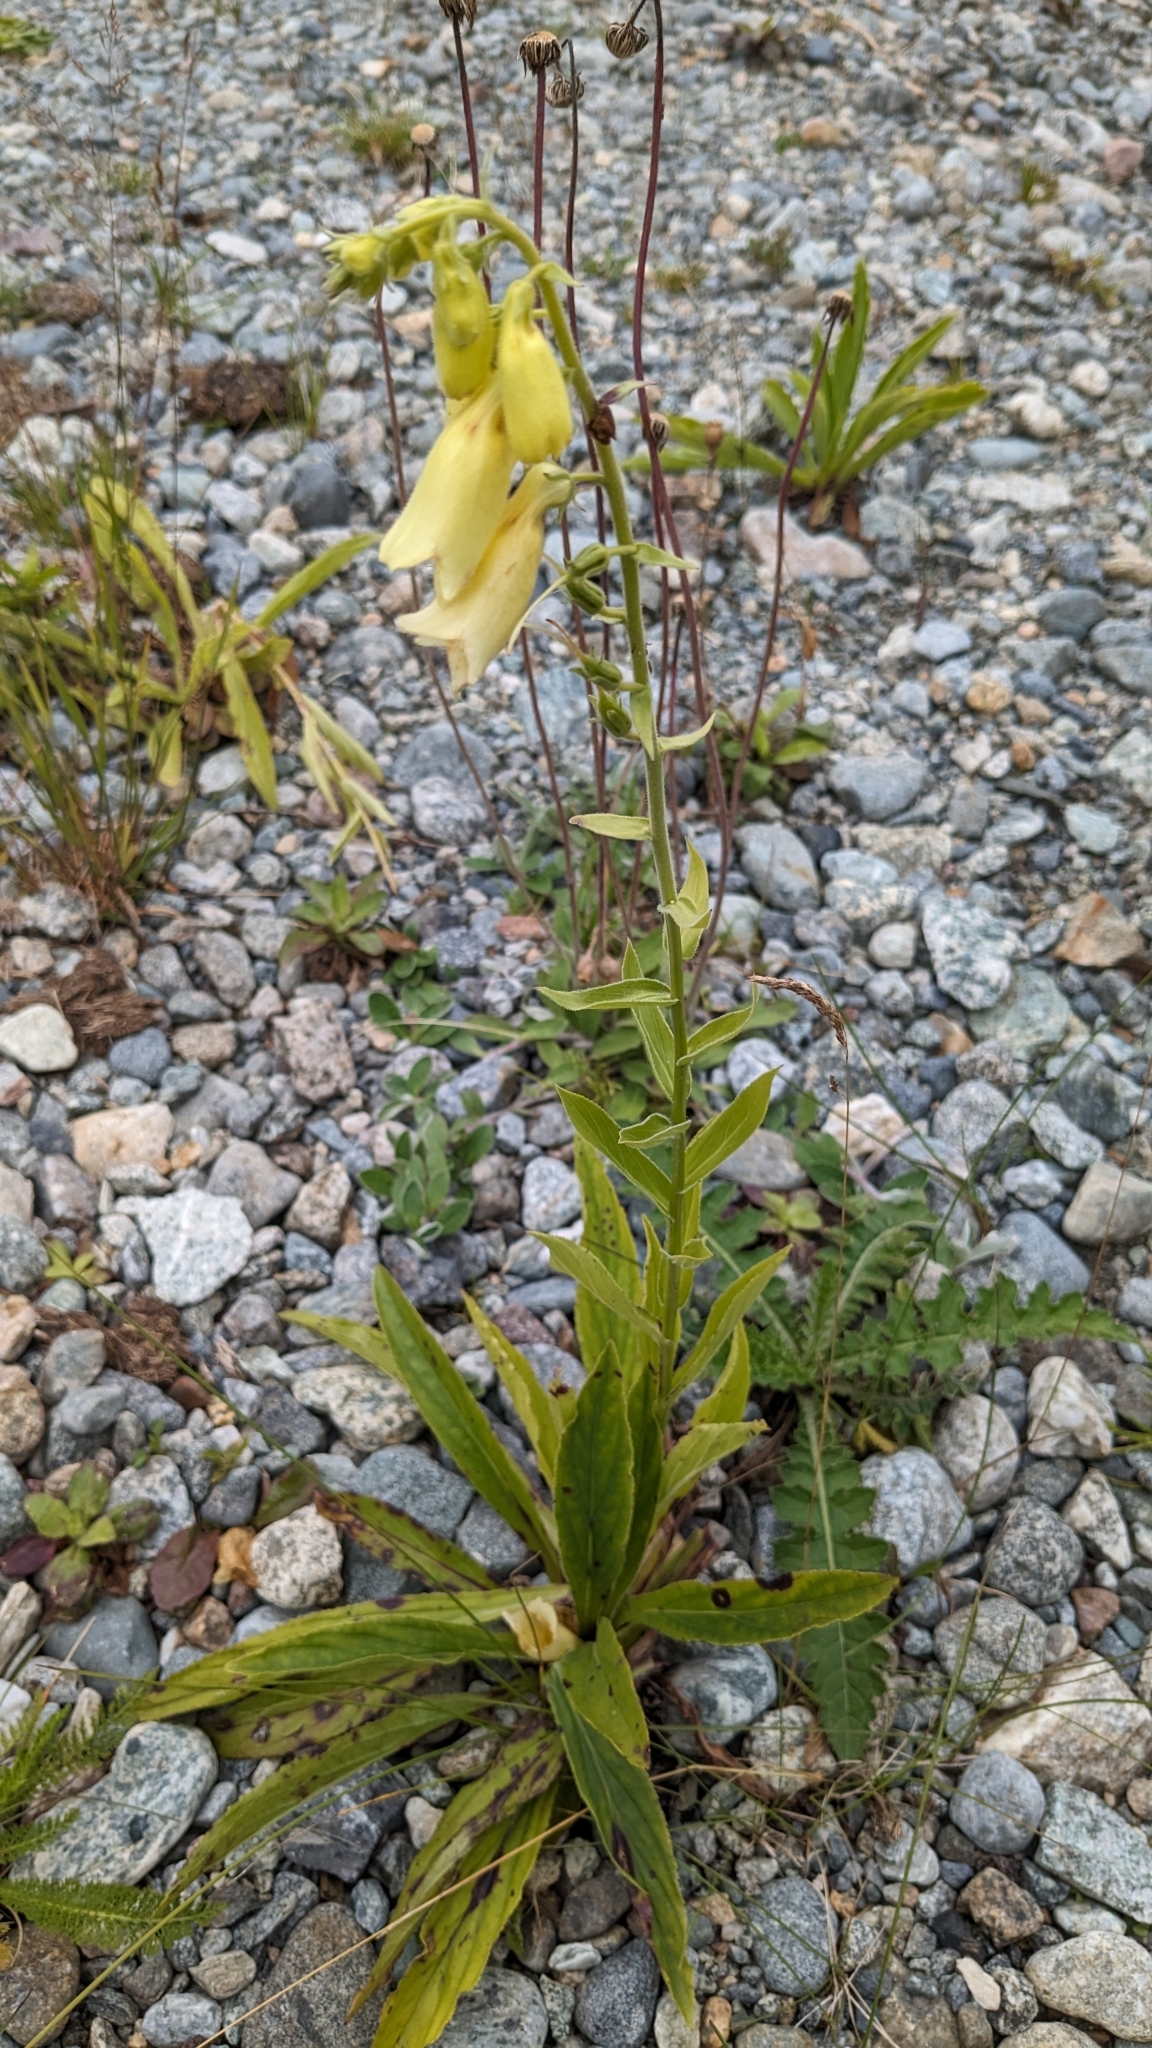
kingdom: Plantae
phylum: Tracheophyta
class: Magnoliopsida
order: Lamiales
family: Plantaginaceae
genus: Digitalis
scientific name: Digitalis grandiflora
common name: Yellow foxglove
